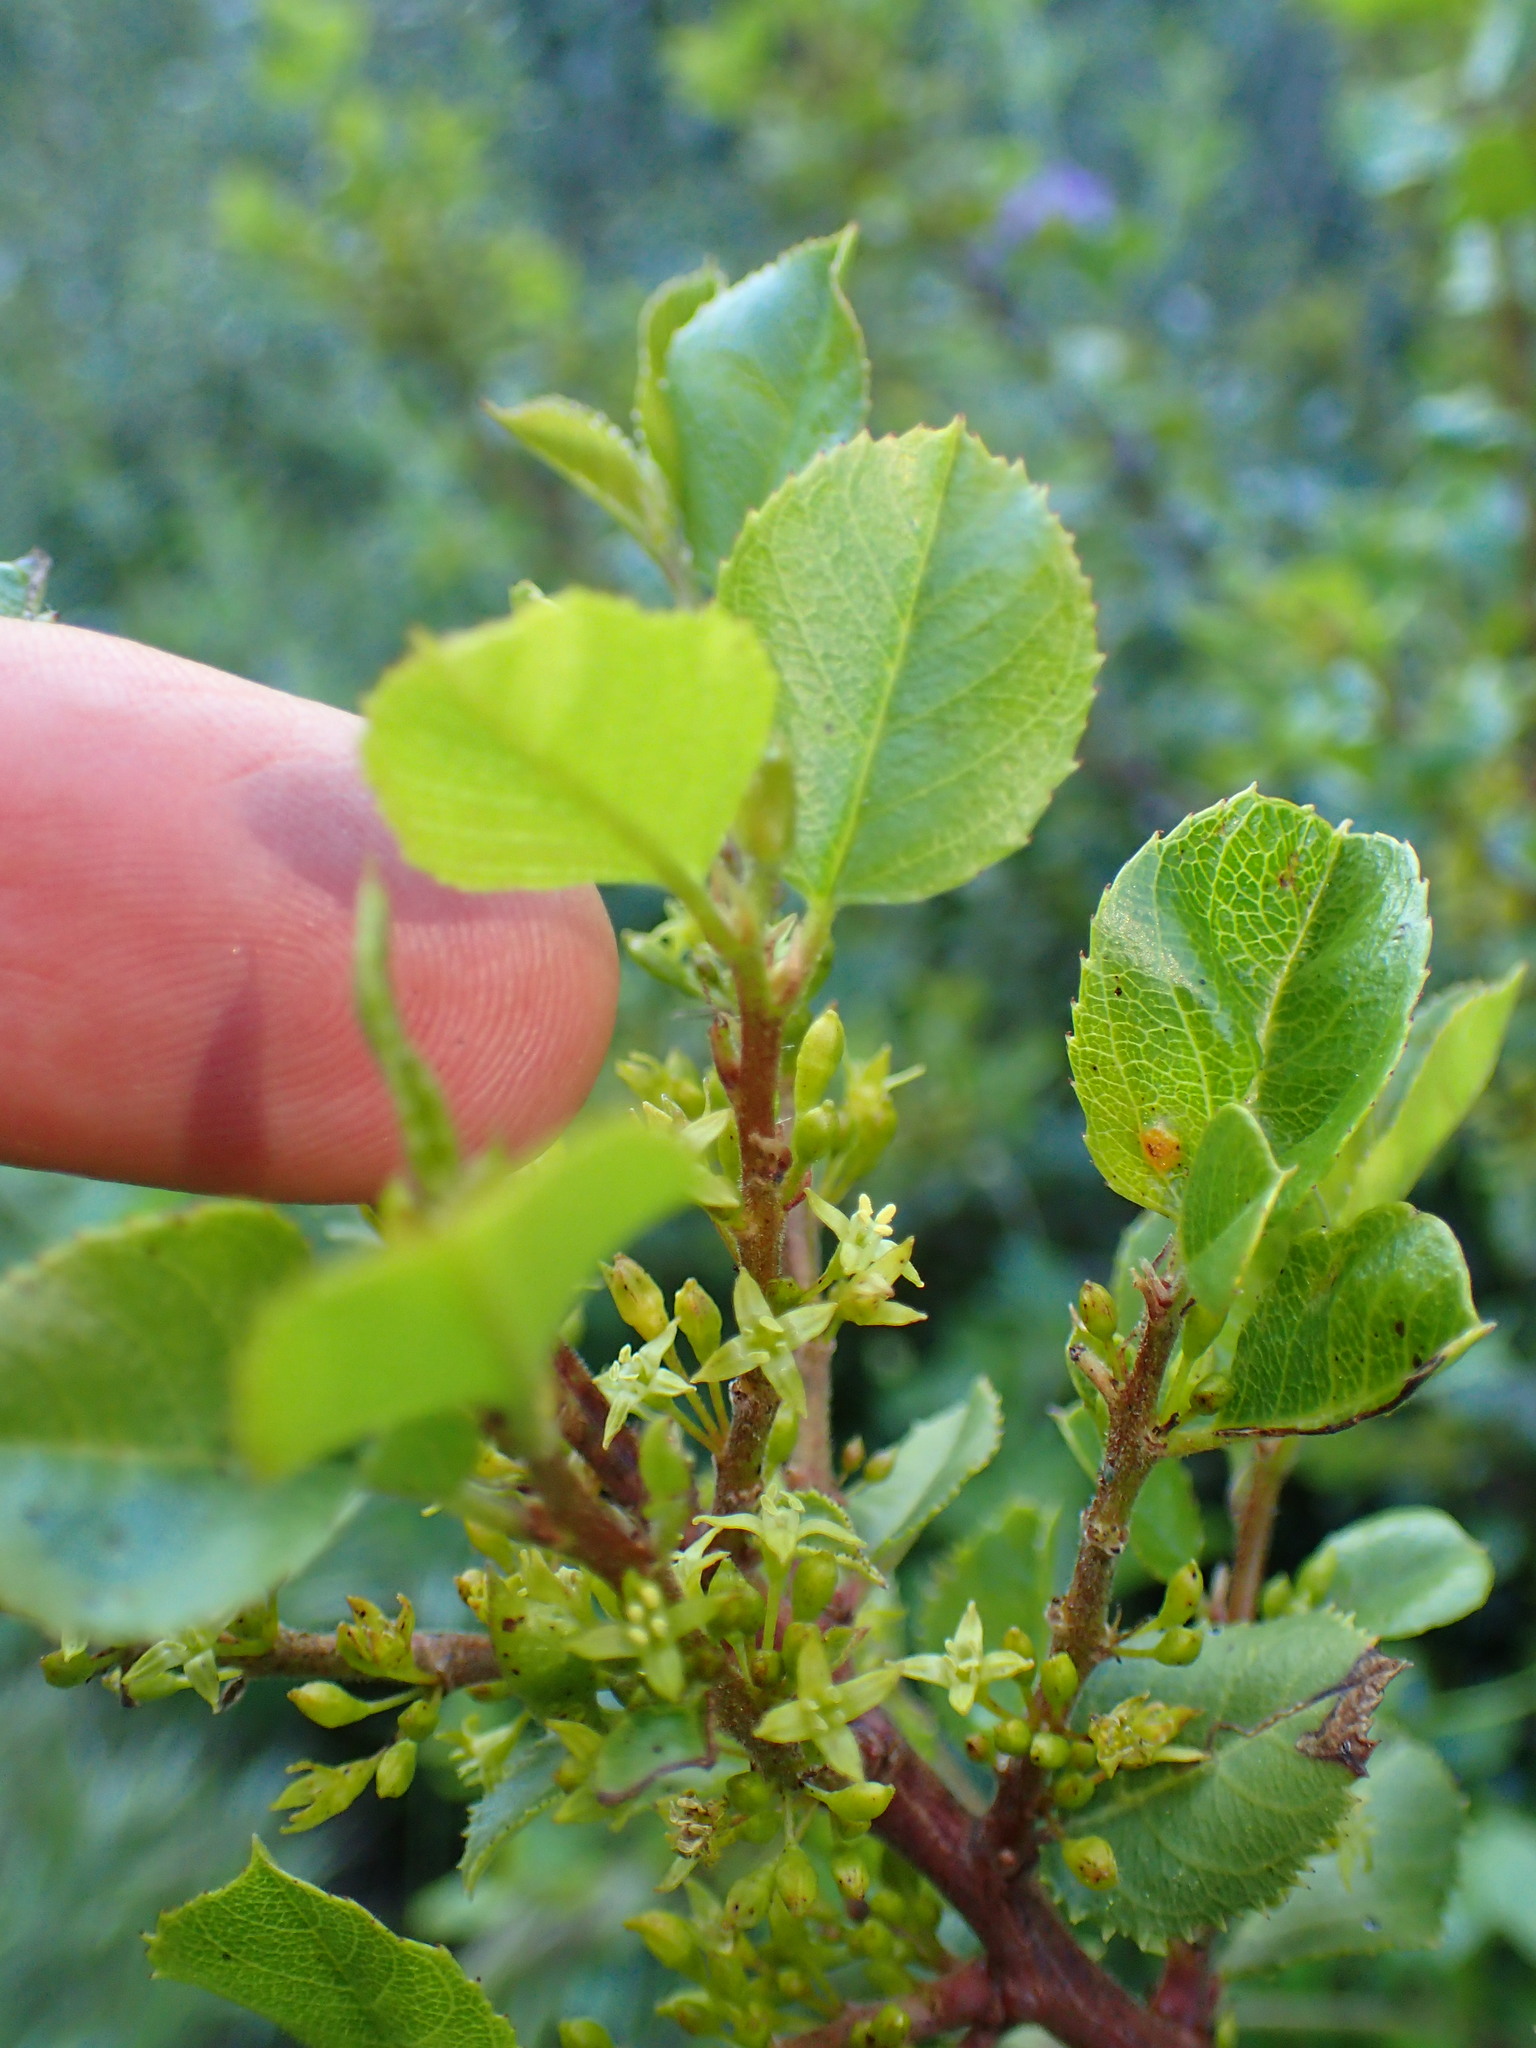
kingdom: Plantae
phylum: Tracheophyta
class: Magnoliopsida
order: Rosales
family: Rhamnaceae
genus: Endotropis
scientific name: Endotropis crocea
